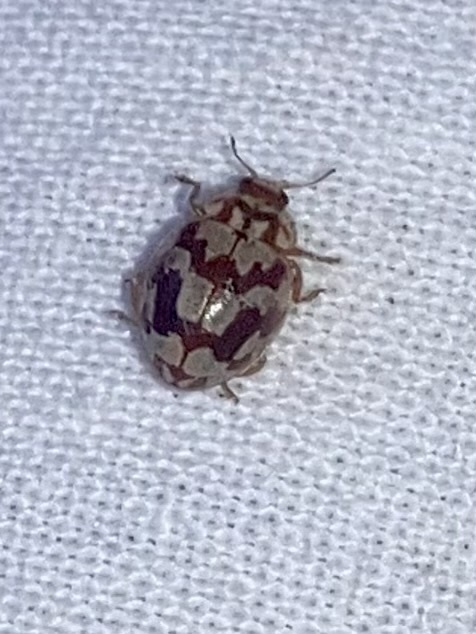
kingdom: Animalia
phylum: Arthropoda
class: Insecta
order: Coleoptera
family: Coccinellidae
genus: Myrrha
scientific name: Myrrha octodecimguttata
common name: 18-spot ladybird
